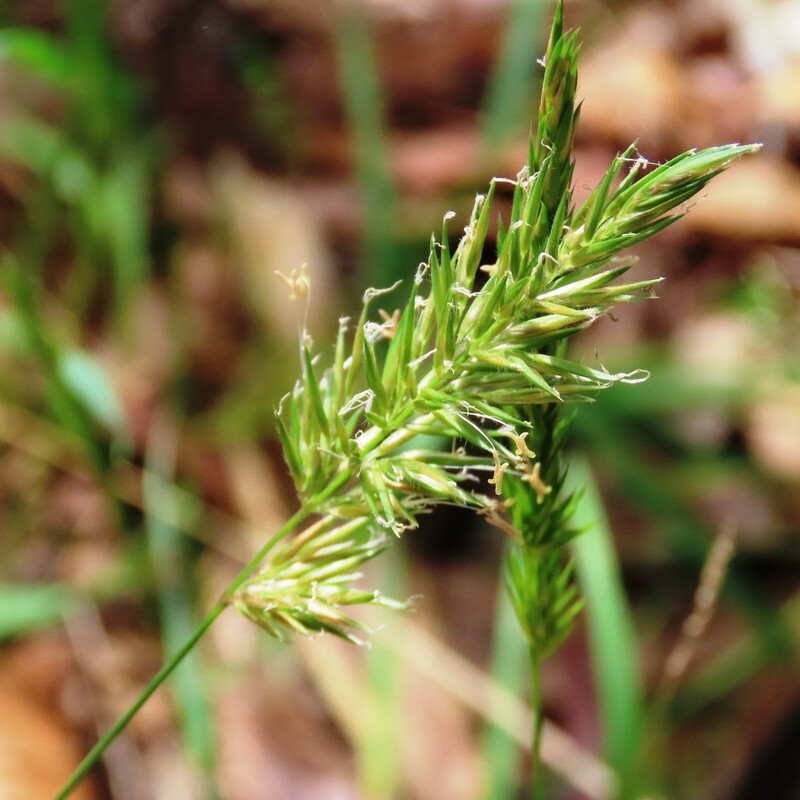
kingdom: Plantae
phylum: Tracheophyta
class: Liliopsida
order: Poales
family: Poaceae
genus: Anthoxanthum
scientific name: Anthoxanthum odoratum
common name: Sweet vernalgrass
